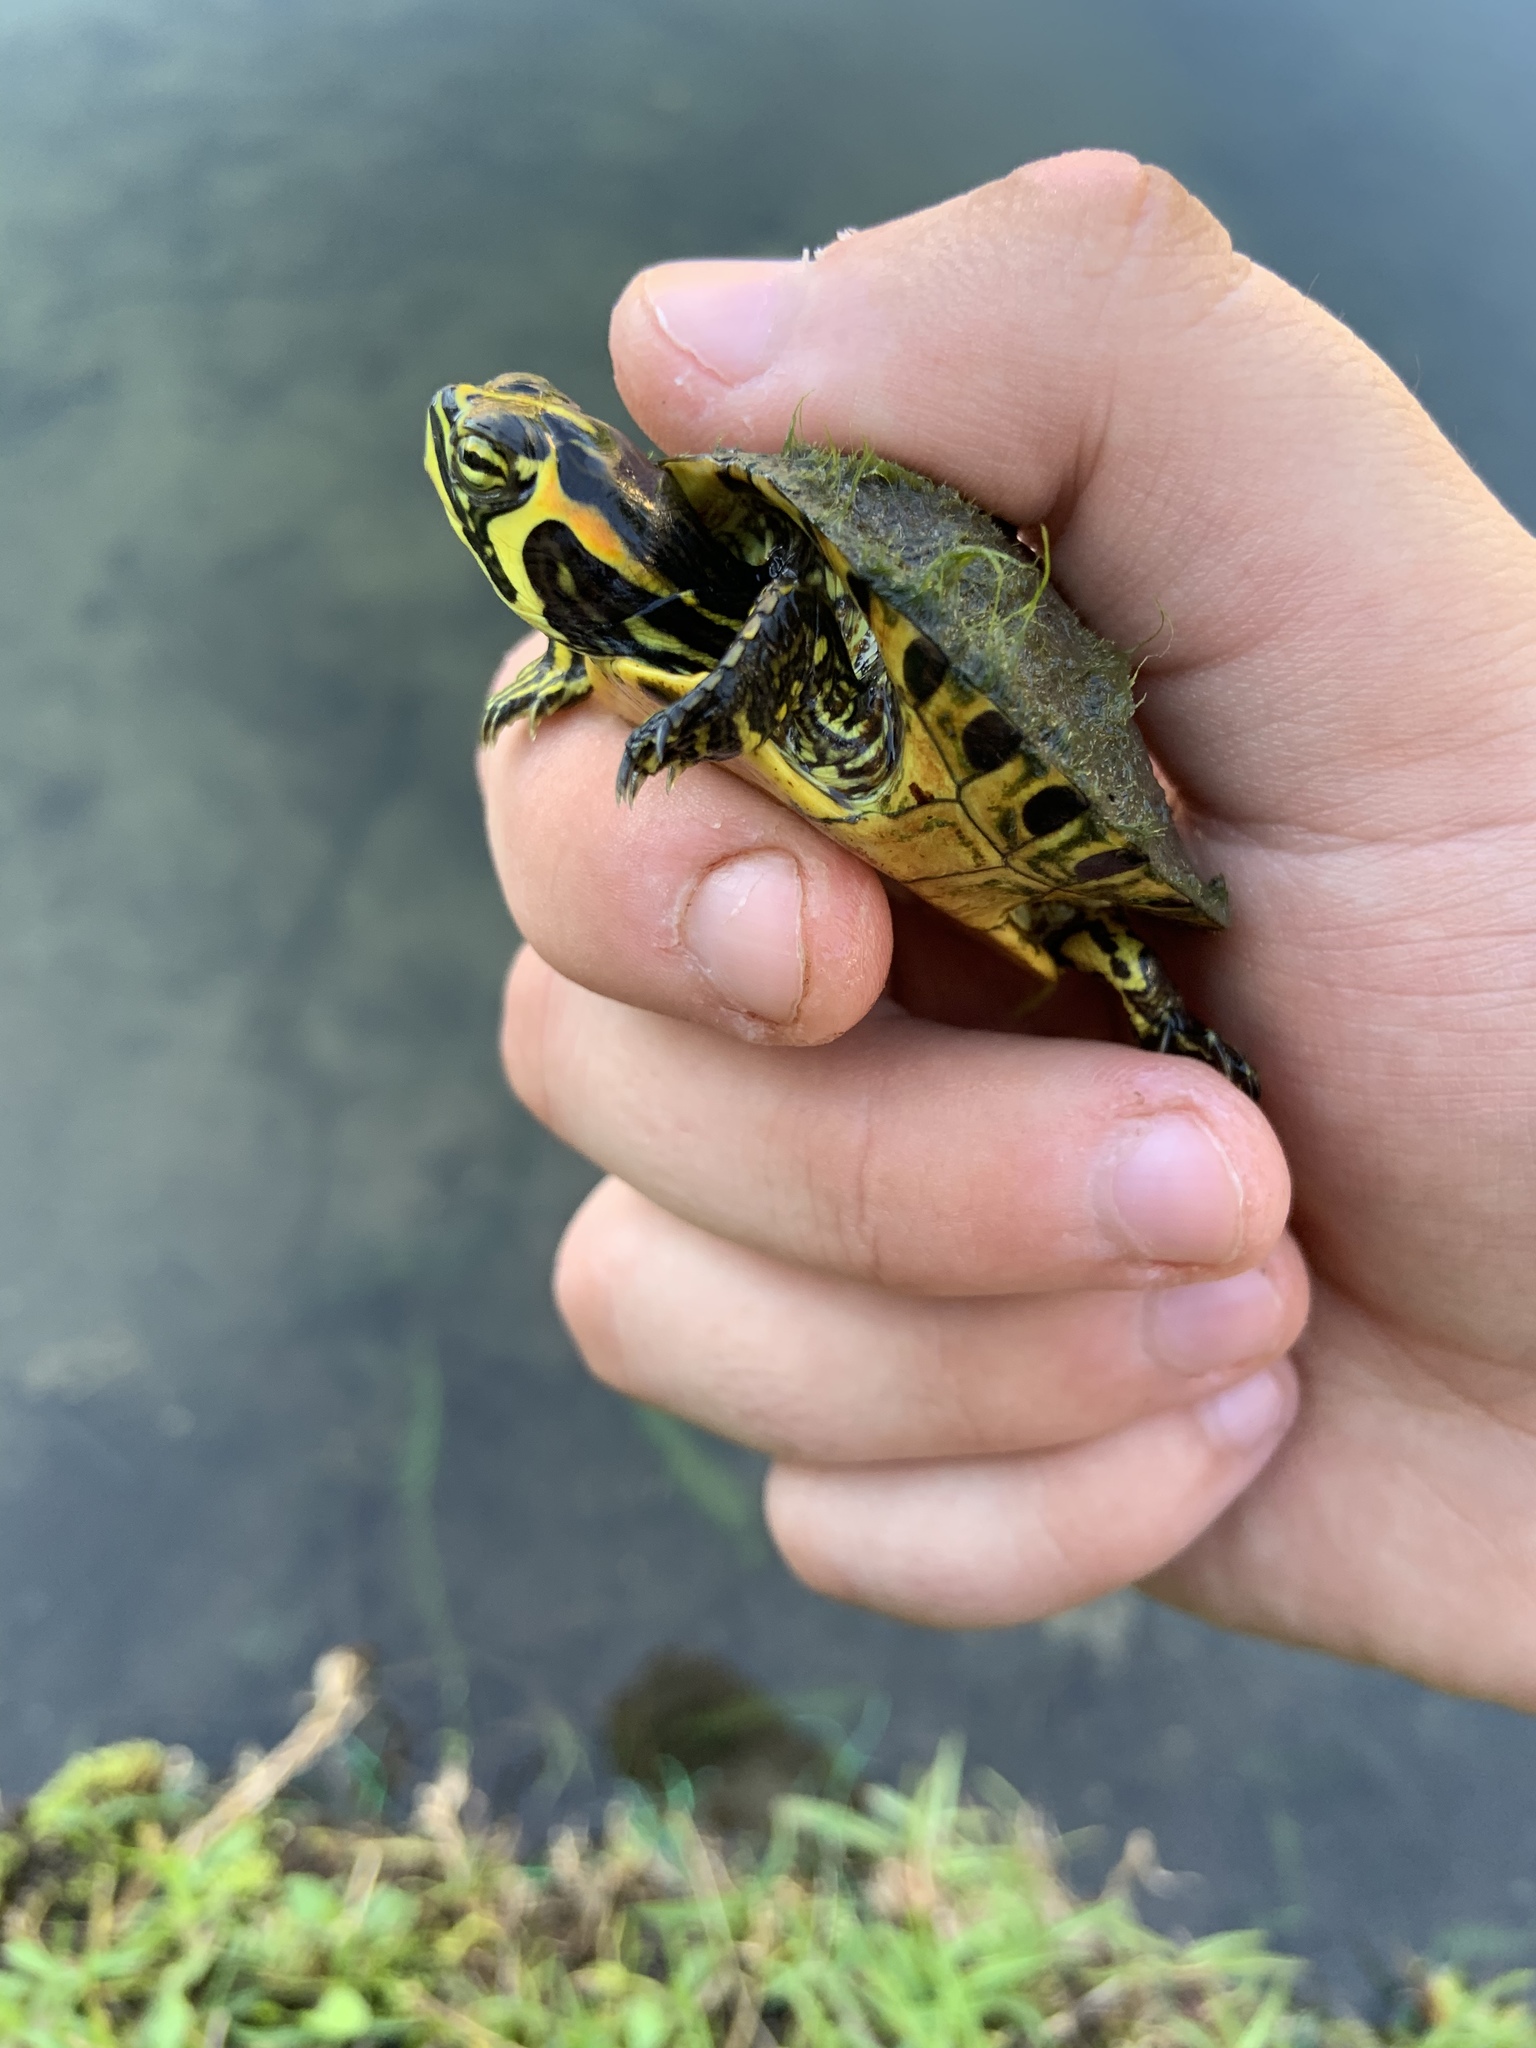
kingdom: Animalia
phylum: Chordata
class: Testudines
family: Emydidae
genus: Trachemys
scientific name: Trachemys scripta
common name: Slider
